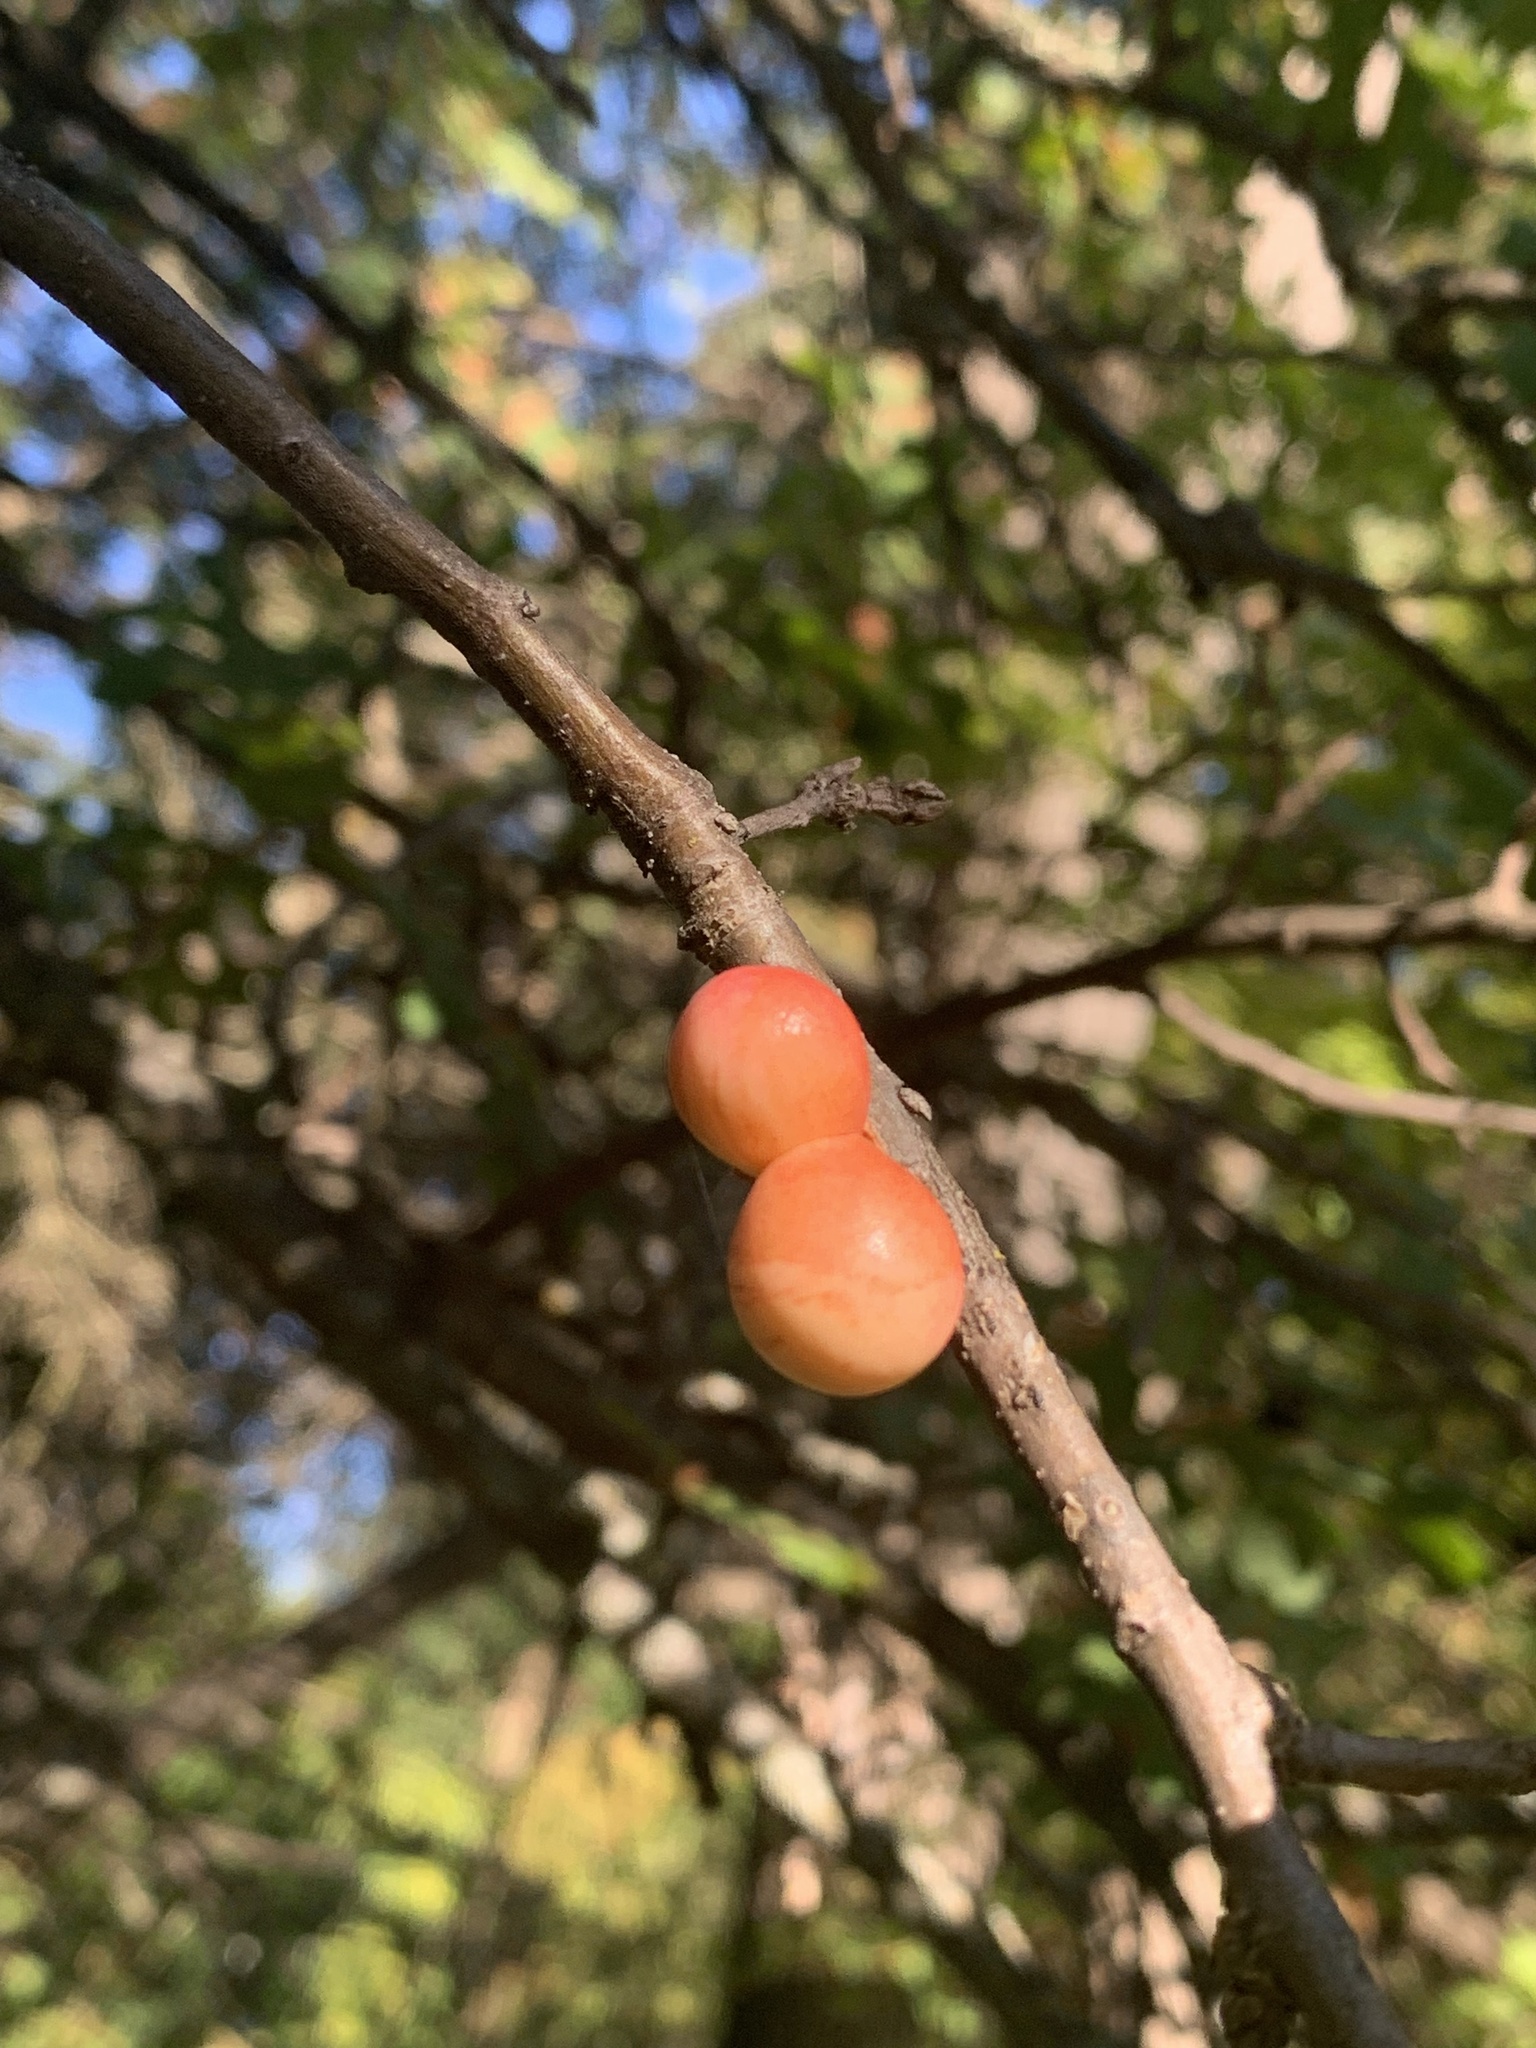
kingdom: Animalia
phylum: Arthropoda
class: Insecta
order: Hymenoptera
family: Cynipidae
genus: Andricus
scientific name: Andricus quercuscalifornicus
